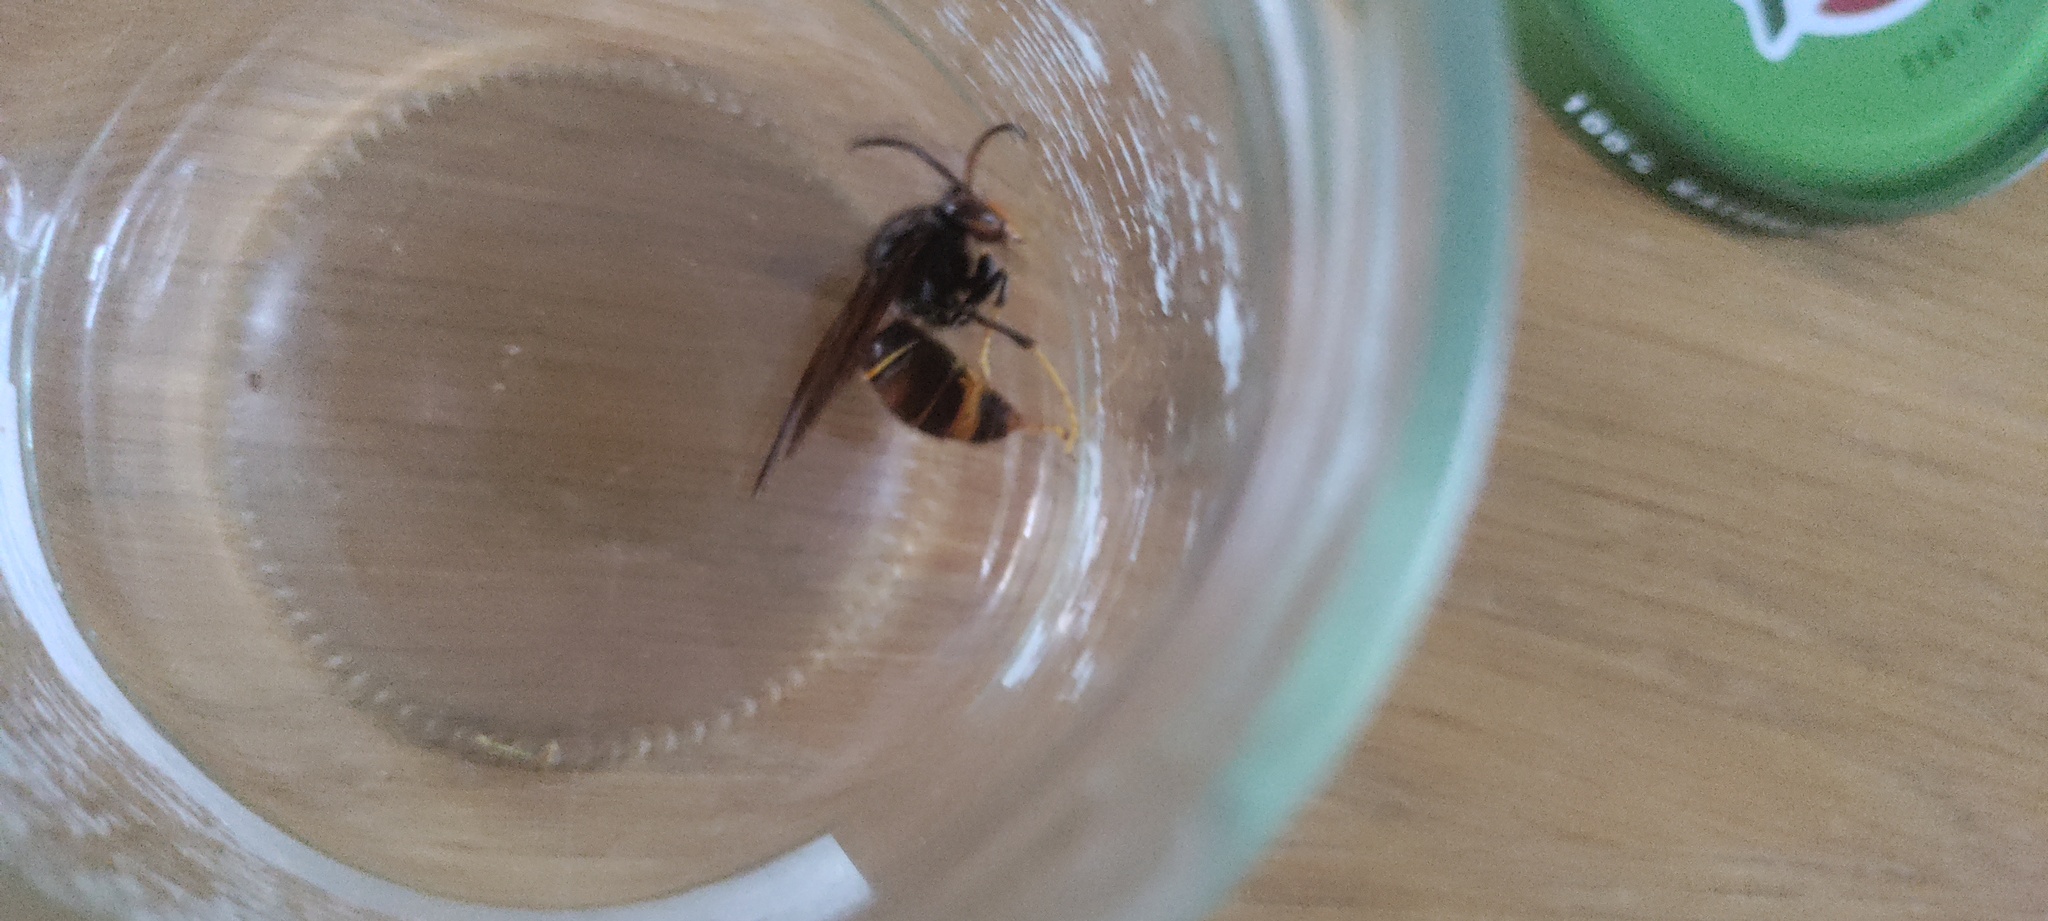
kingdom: Animalia
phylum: Arthropoda
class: Insecta
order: Hymenoptera
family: Vespidae
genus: Vespa
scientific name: Vespa velutina
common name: Asian hornet
